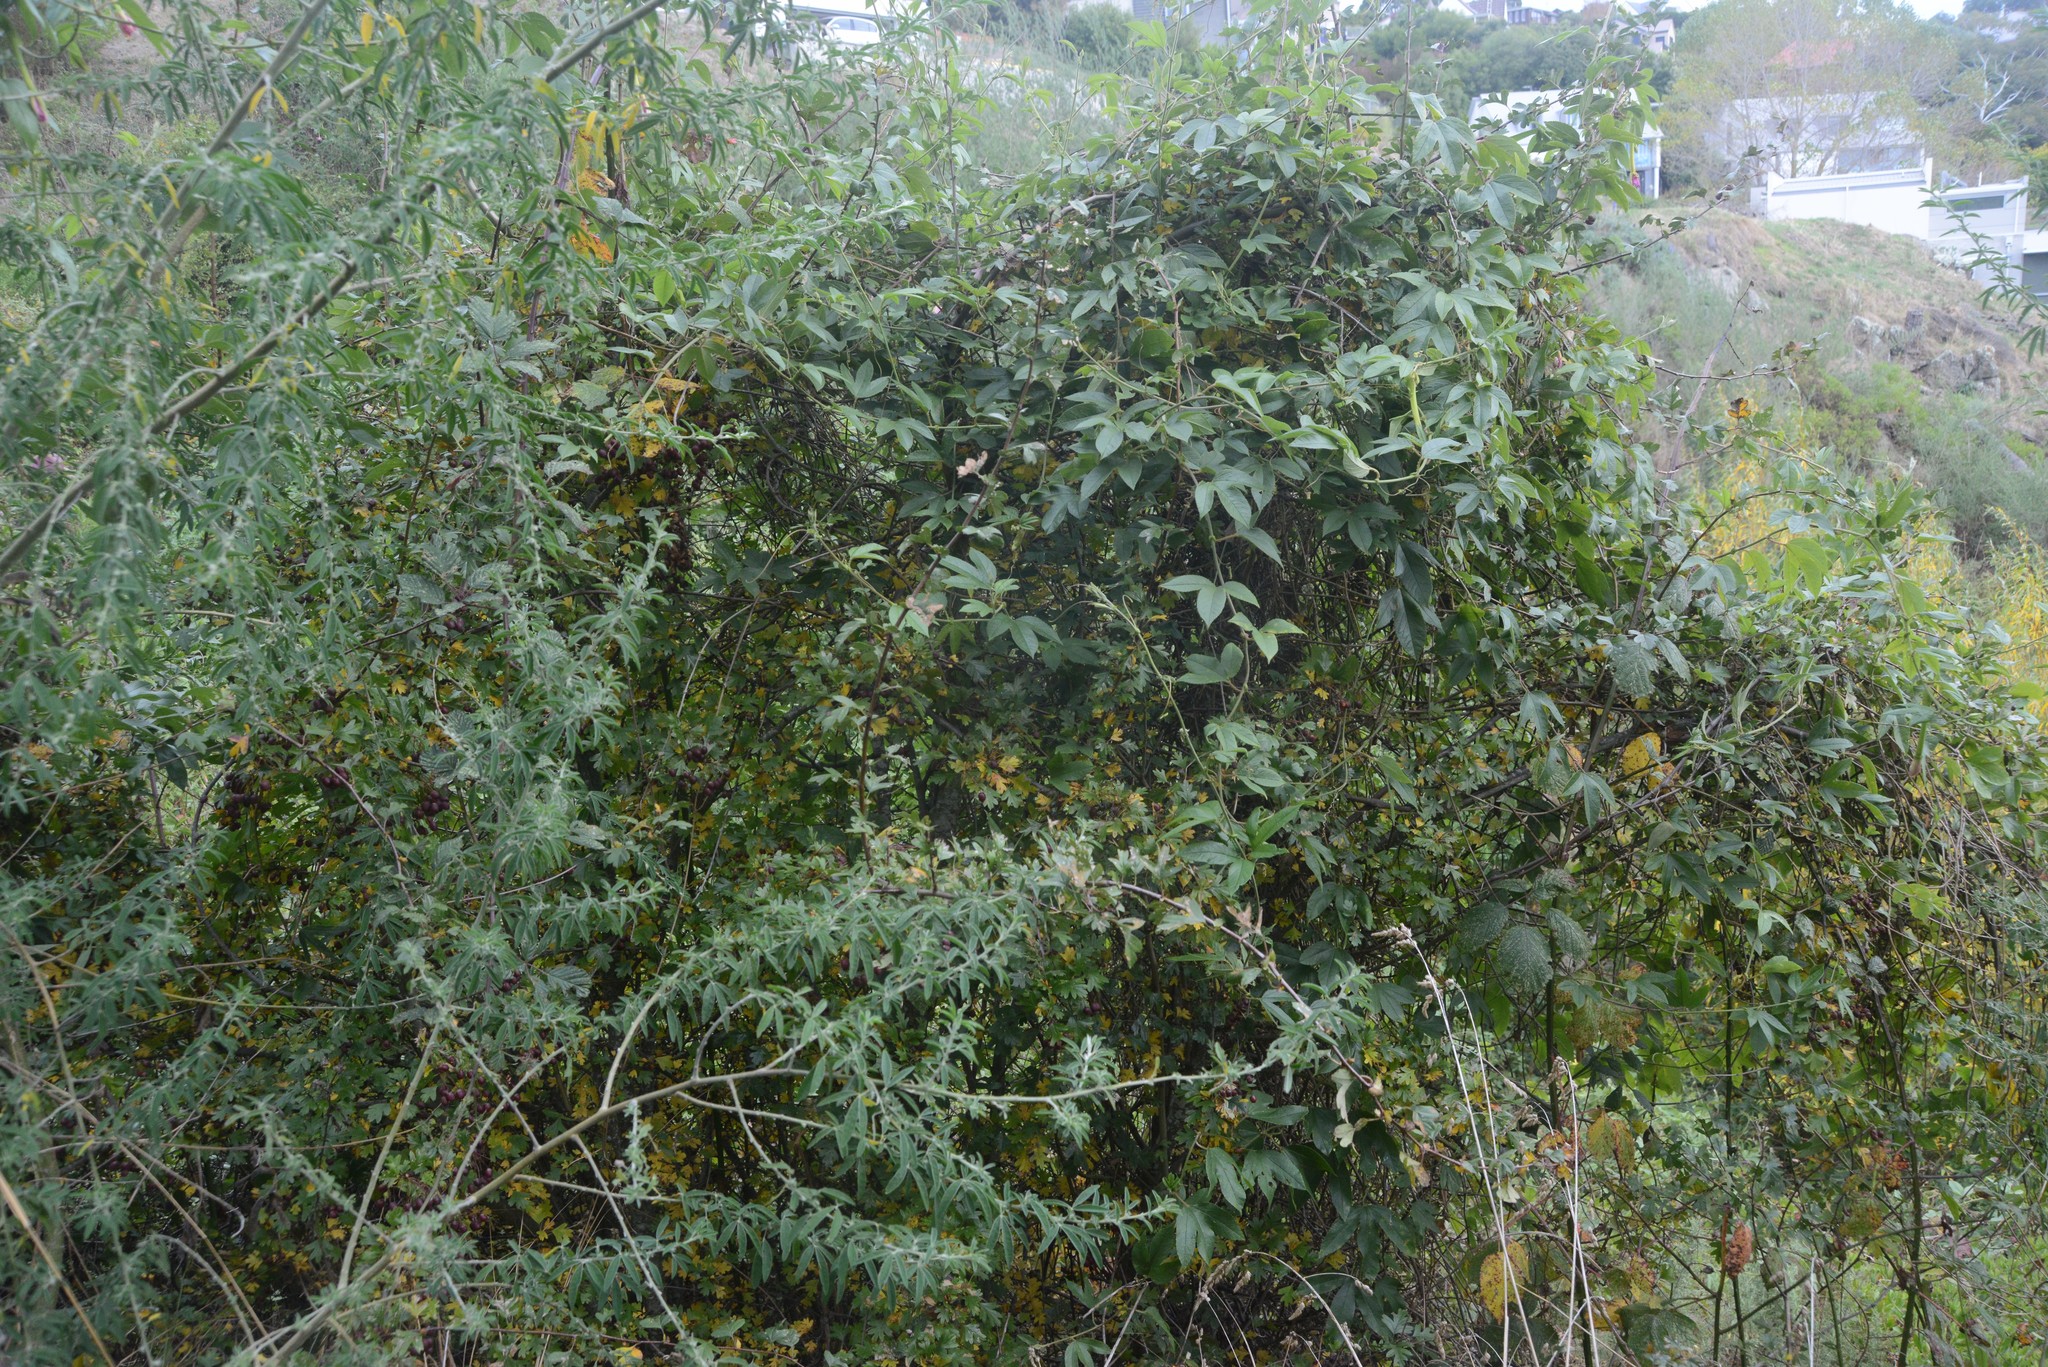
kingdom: Plantae
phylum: Tracheophyta
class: Magnoliopsida
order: Malpighiales
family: Passifloraceae
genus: Passiflora
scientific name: Passiflora tripartita
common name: Banana poka
